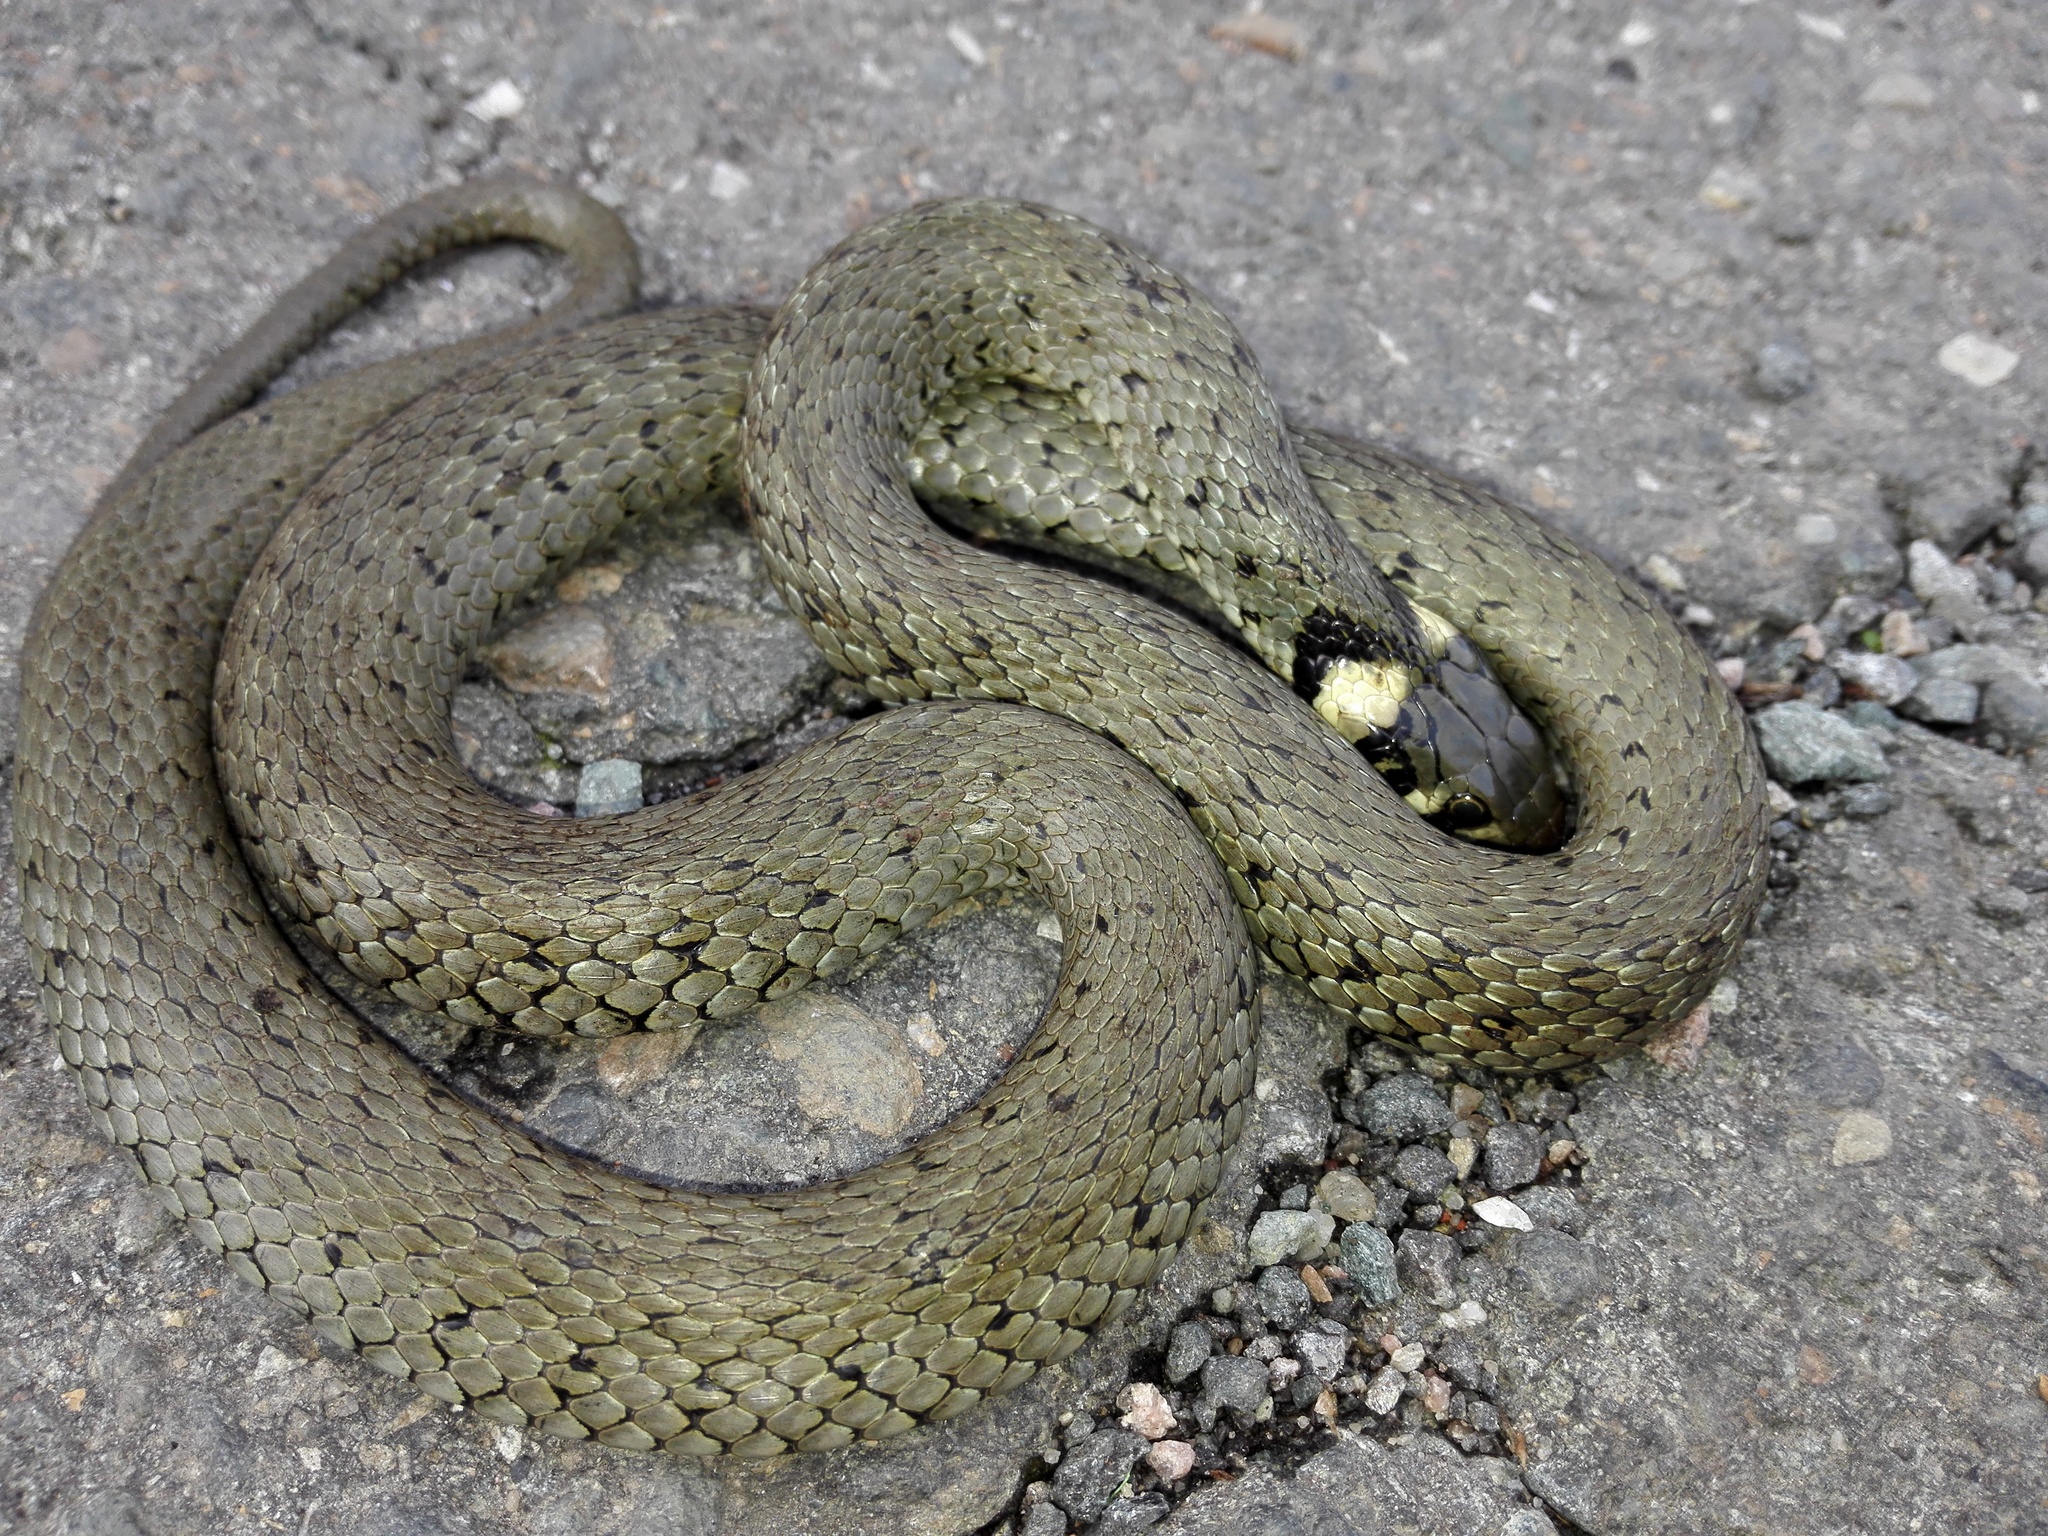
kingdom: Animalia
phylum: Chordata
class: Squamata
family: Colubridae
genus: Natrix
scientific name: Natrix natrix
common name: Grass snake
